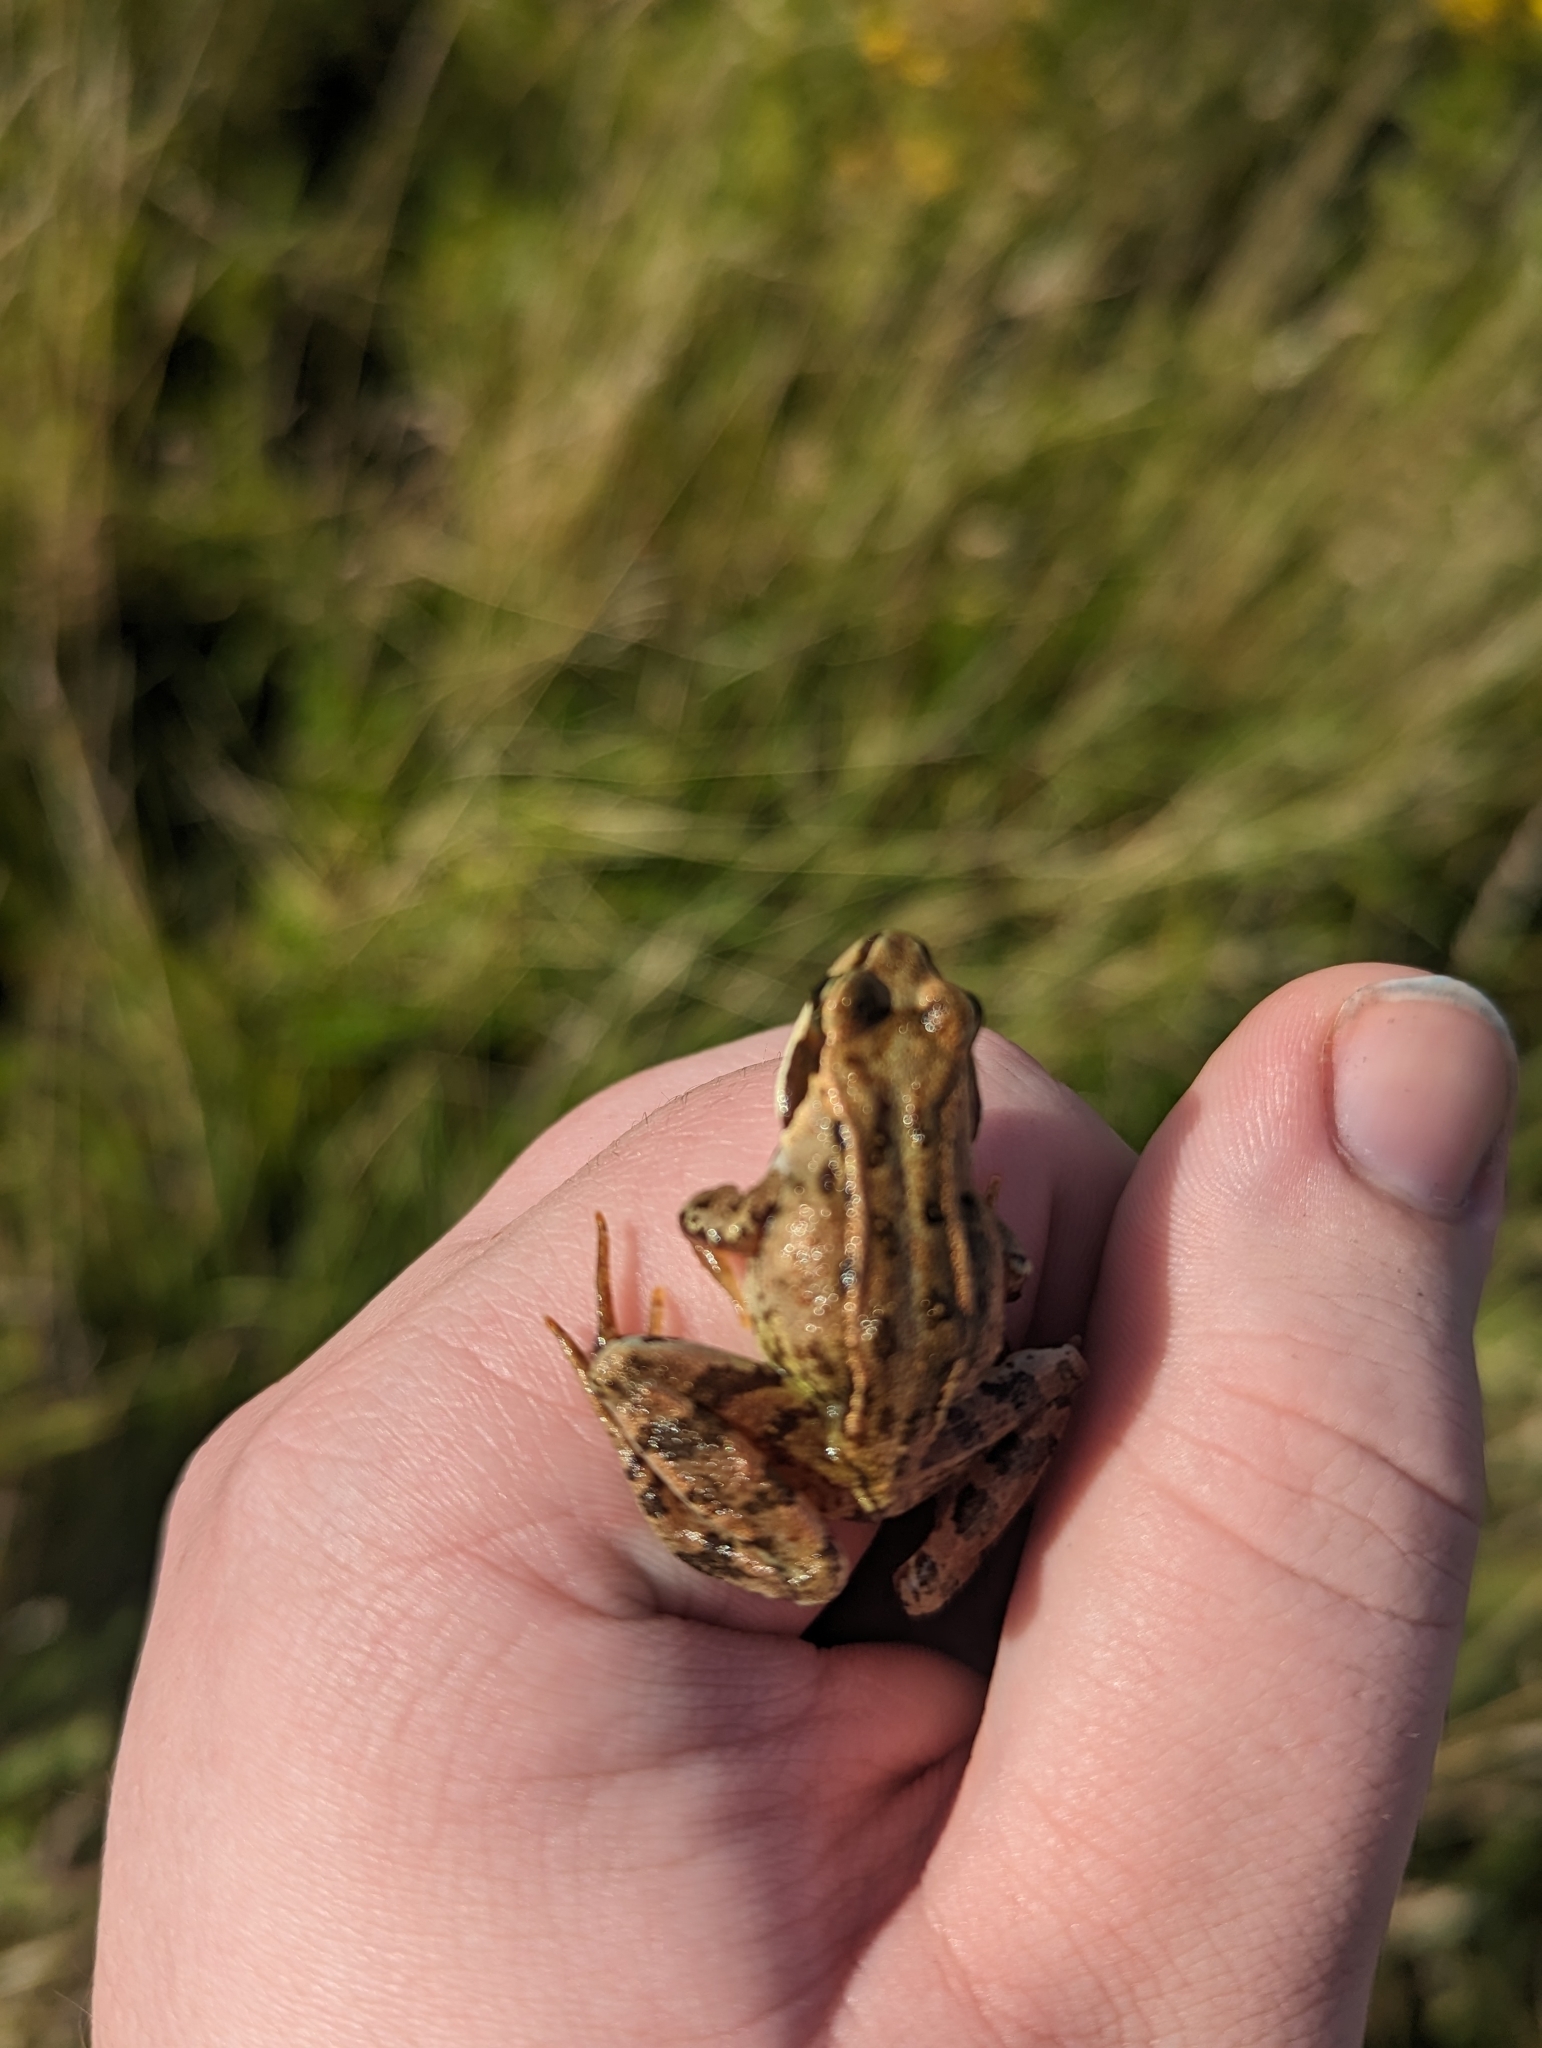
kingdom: Animalia
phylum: Chordata
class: Amphibia
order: Anura
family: Ranidae
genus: Rana
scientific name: Rana temporaria
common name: Common frog
